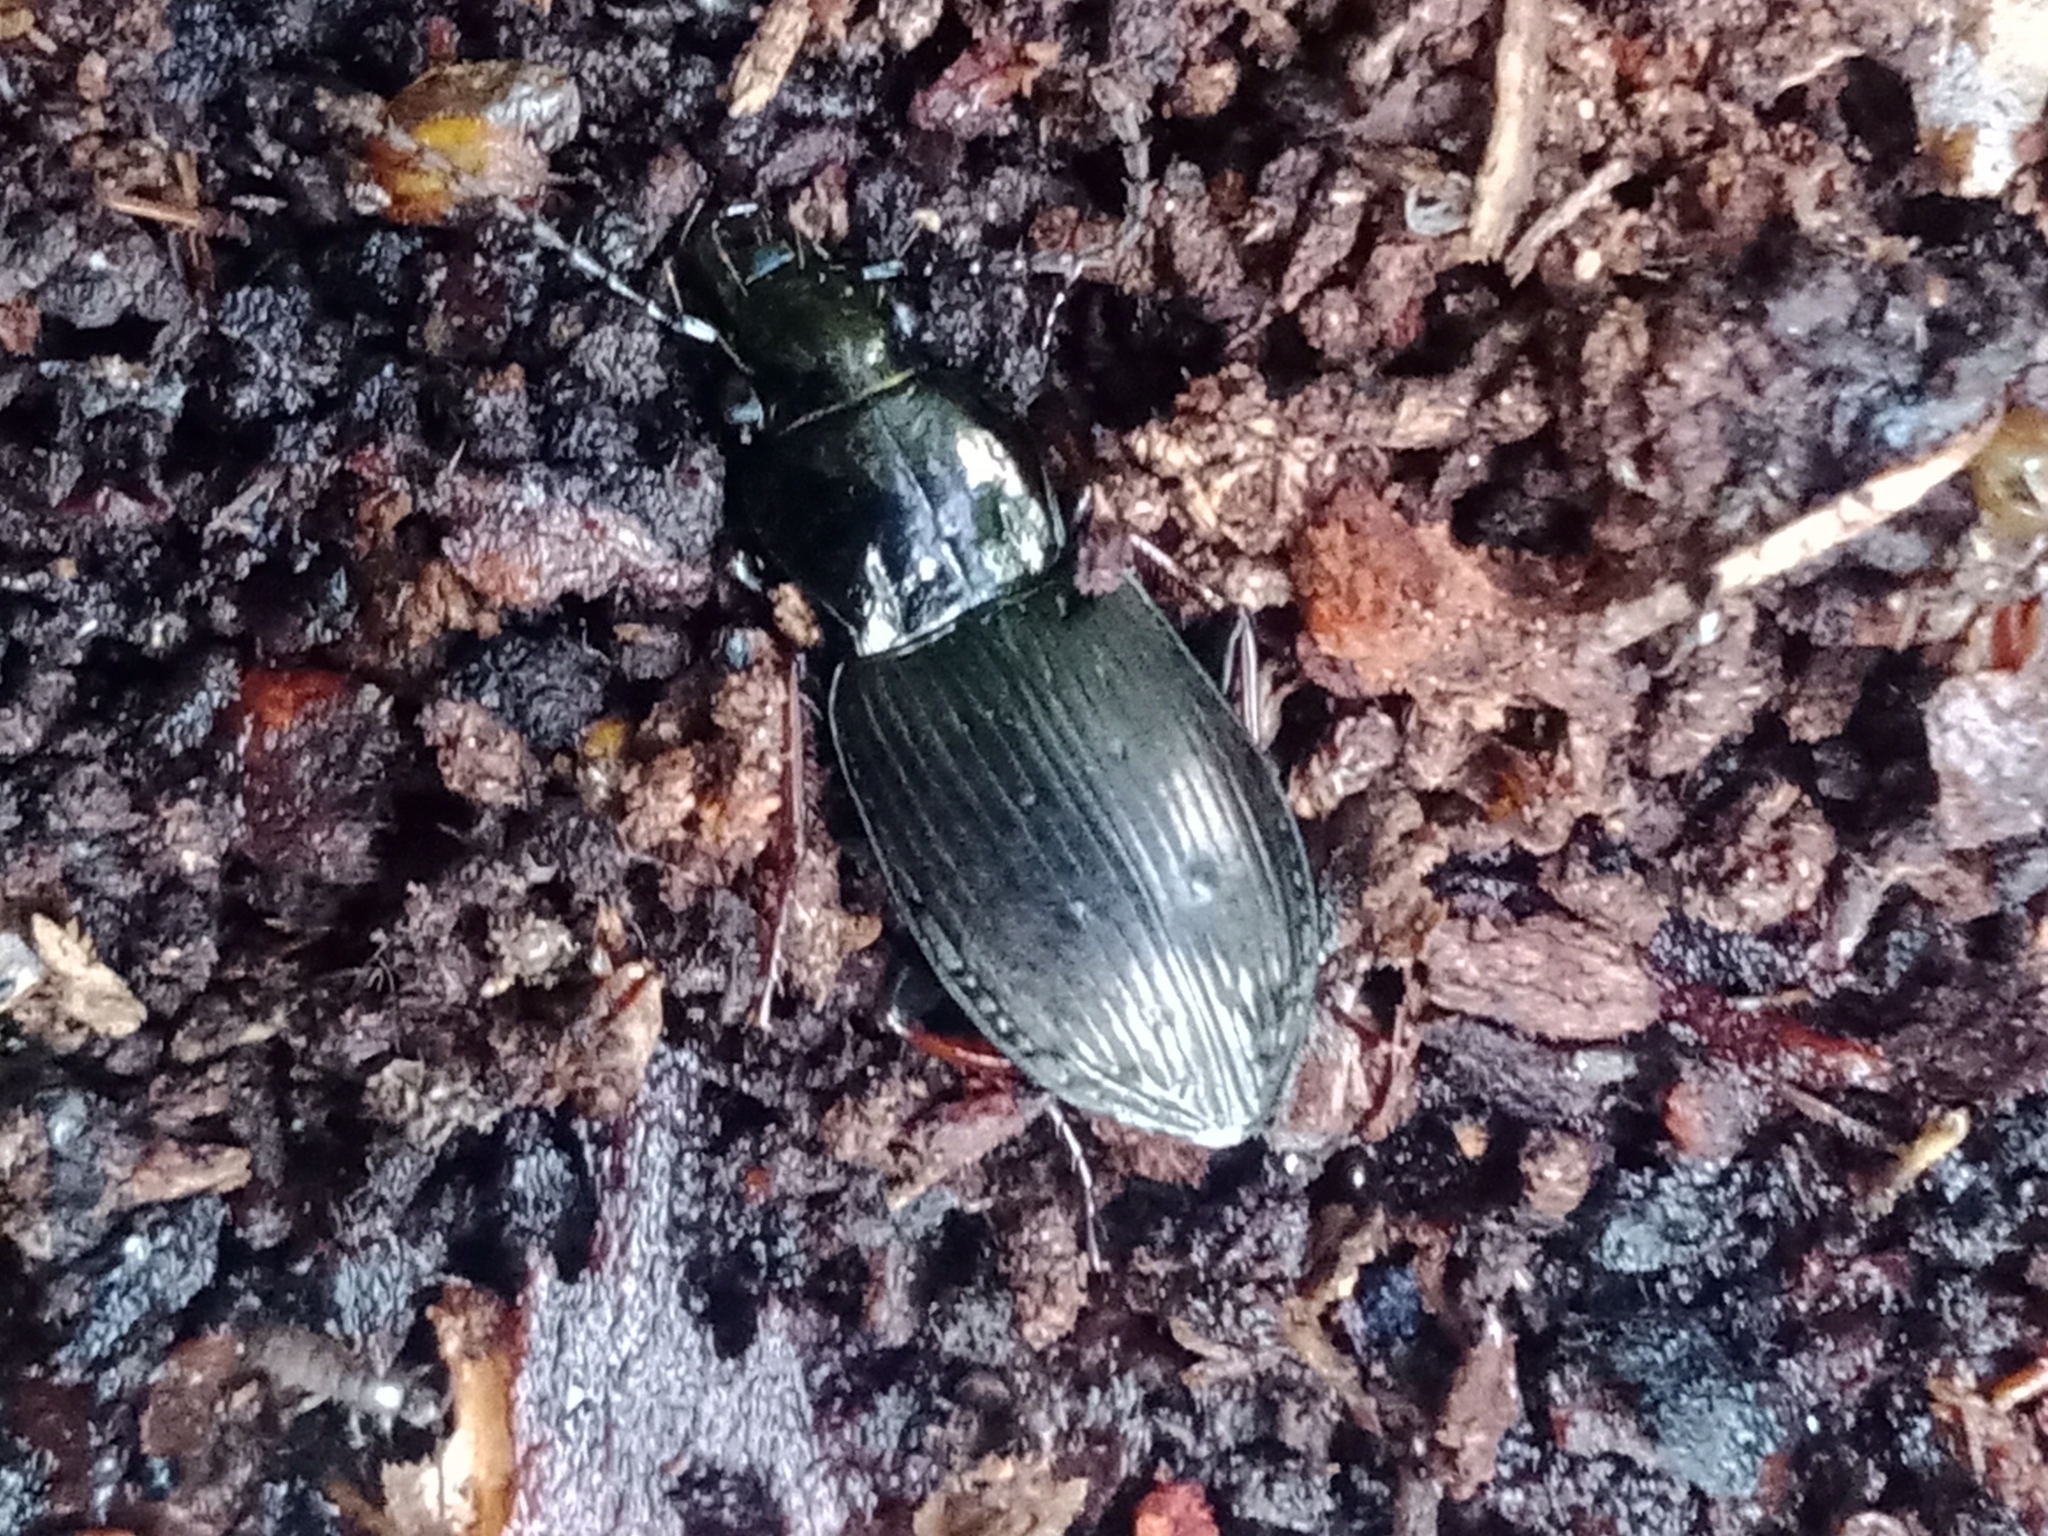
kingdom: Animalia
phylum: Arthropoda
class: Insecta
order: Coleoptera
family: Carabidae
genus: Pterostichus
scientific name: Pterostichus oblongopunctatus
